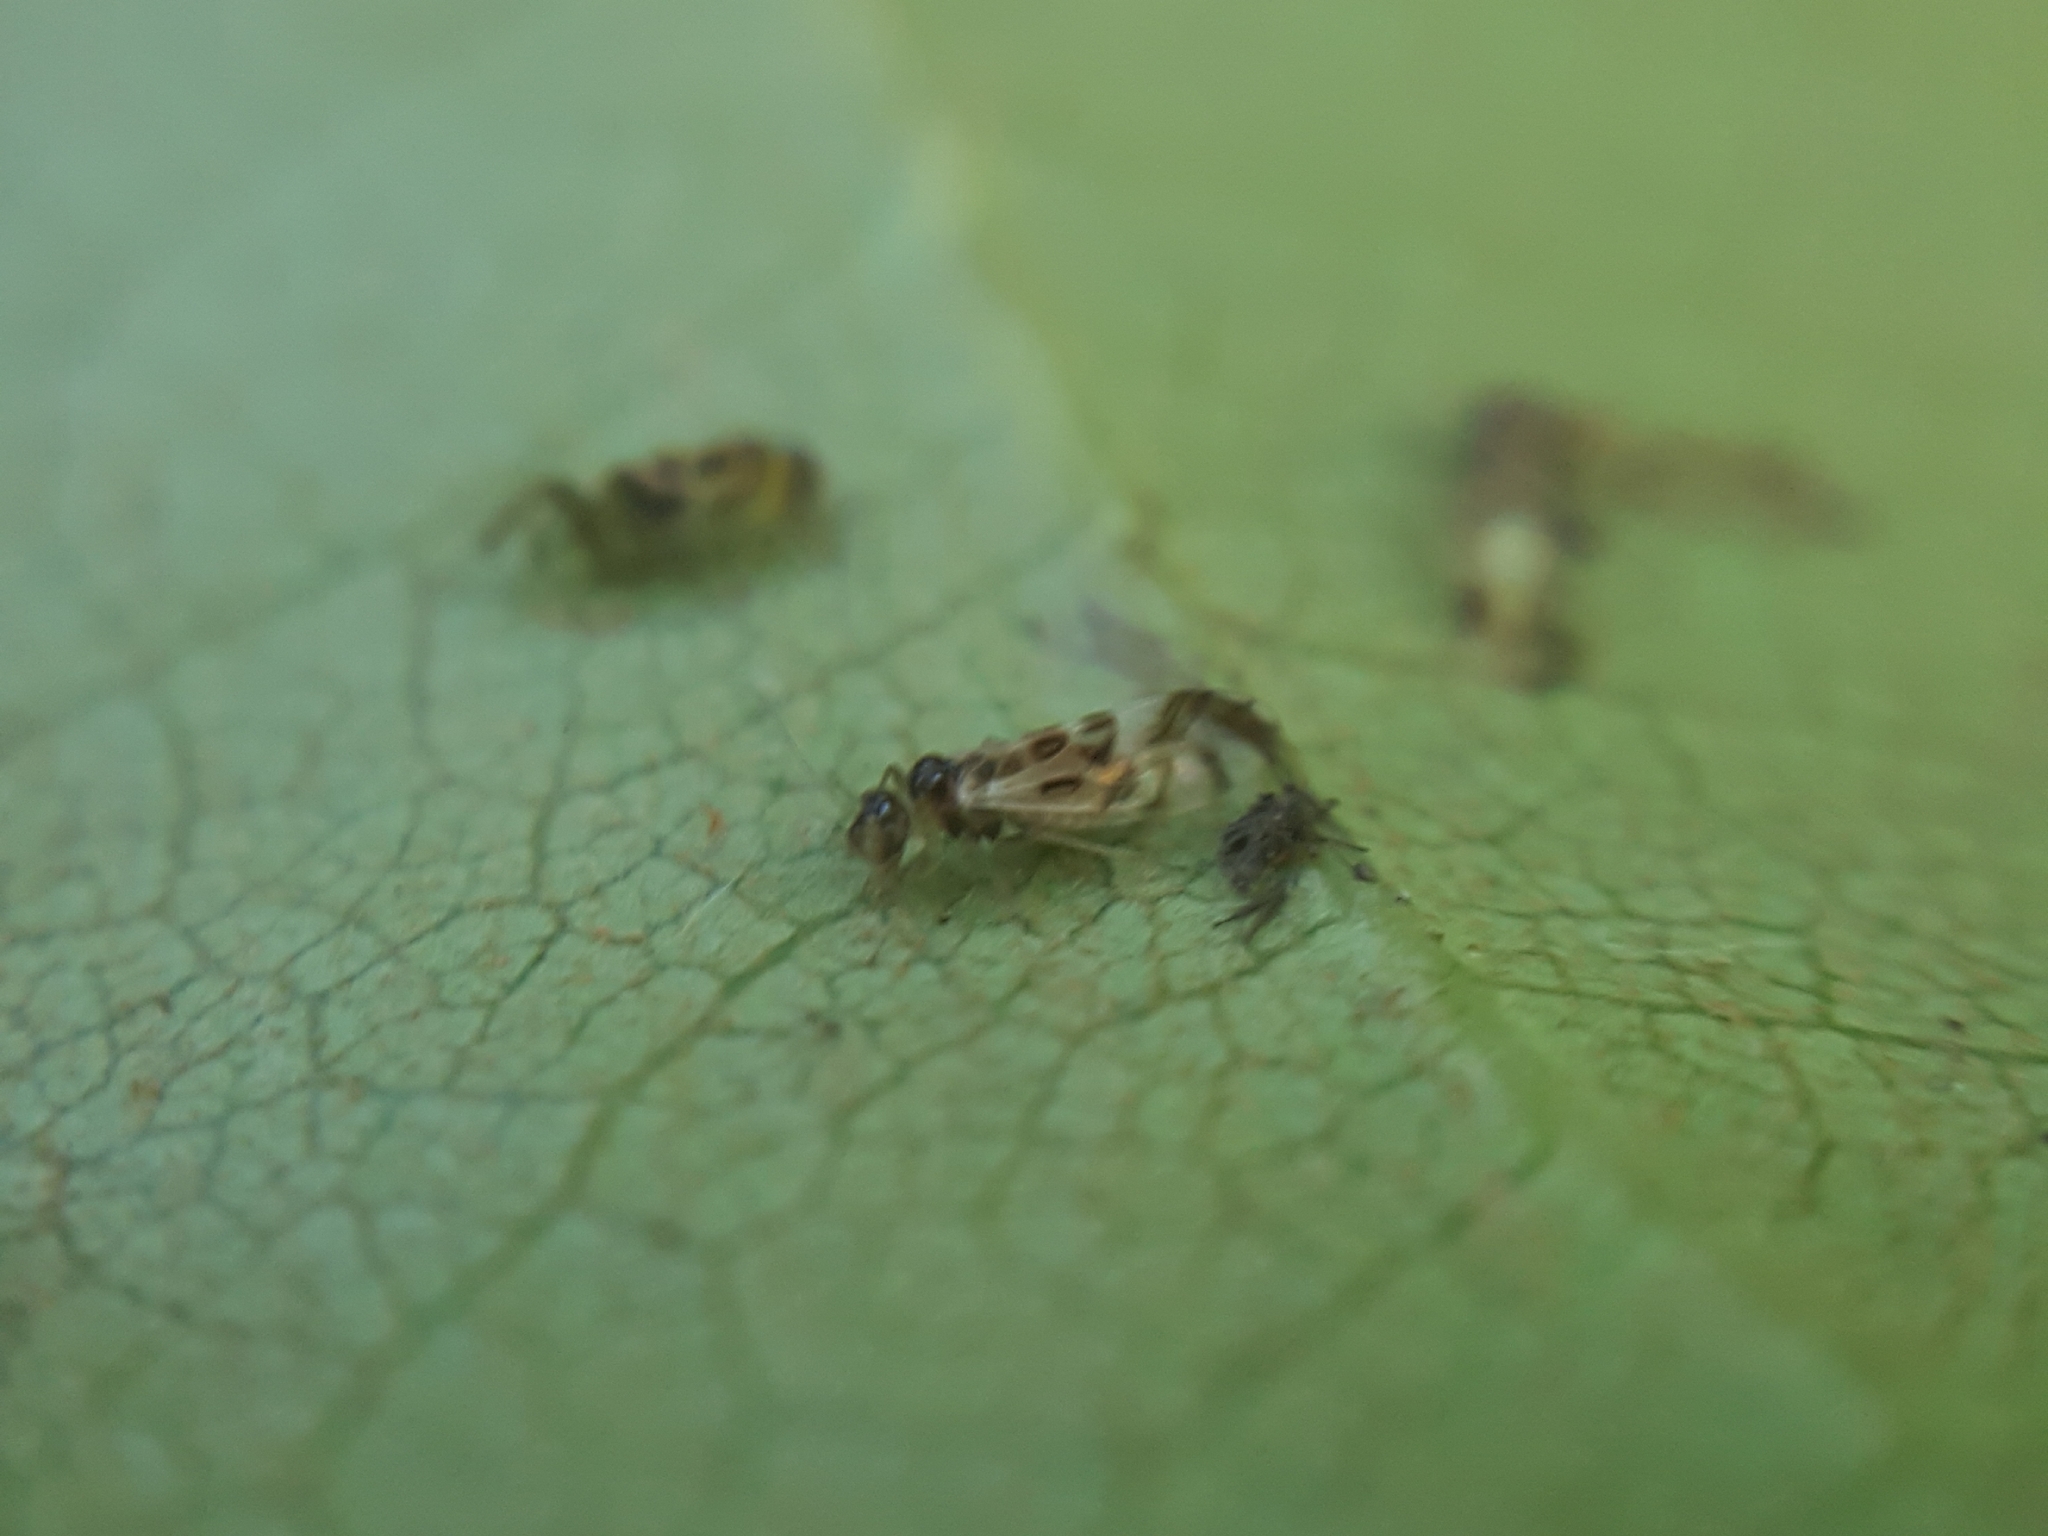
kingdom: Animalia
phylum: Arthropoda
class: Insecta
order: Psocodea
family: Stenopsocidae
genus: Graphopsocus
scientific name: Graphopsocus cruciatus
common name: Lizard bark louse
